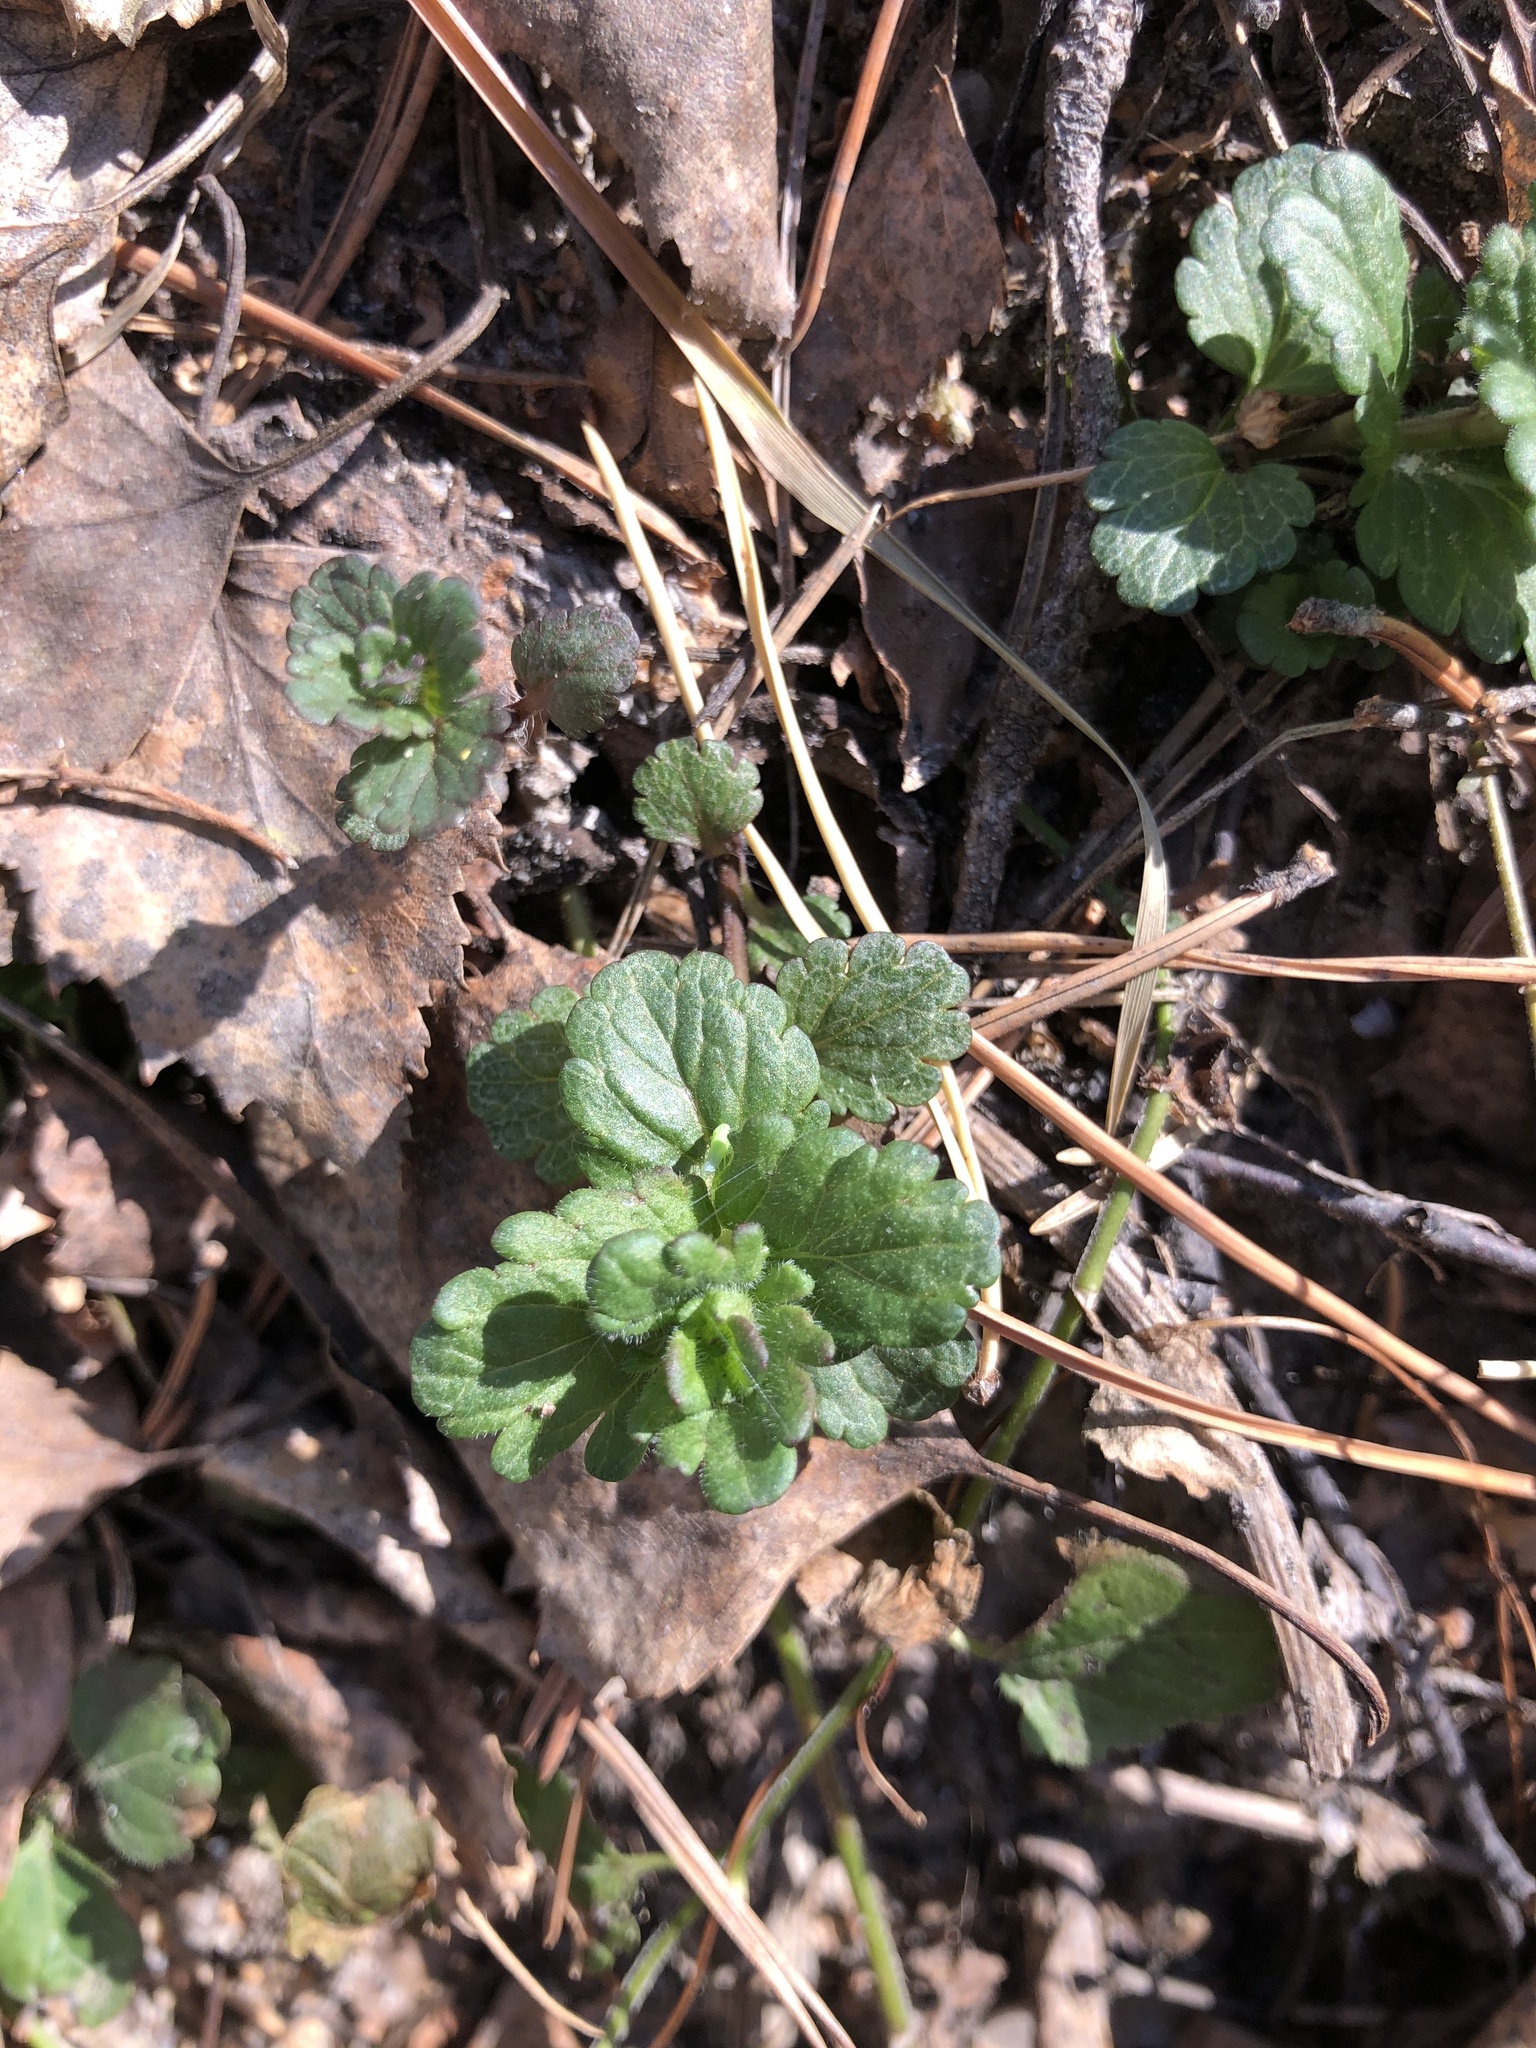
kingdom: Plantae
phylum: Tracheophyta
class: Magnoliopsida
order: Lamiales
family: Plantaginaceae
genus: Veronica
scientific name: Veronica chamaedrys
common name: Germander speedwell
